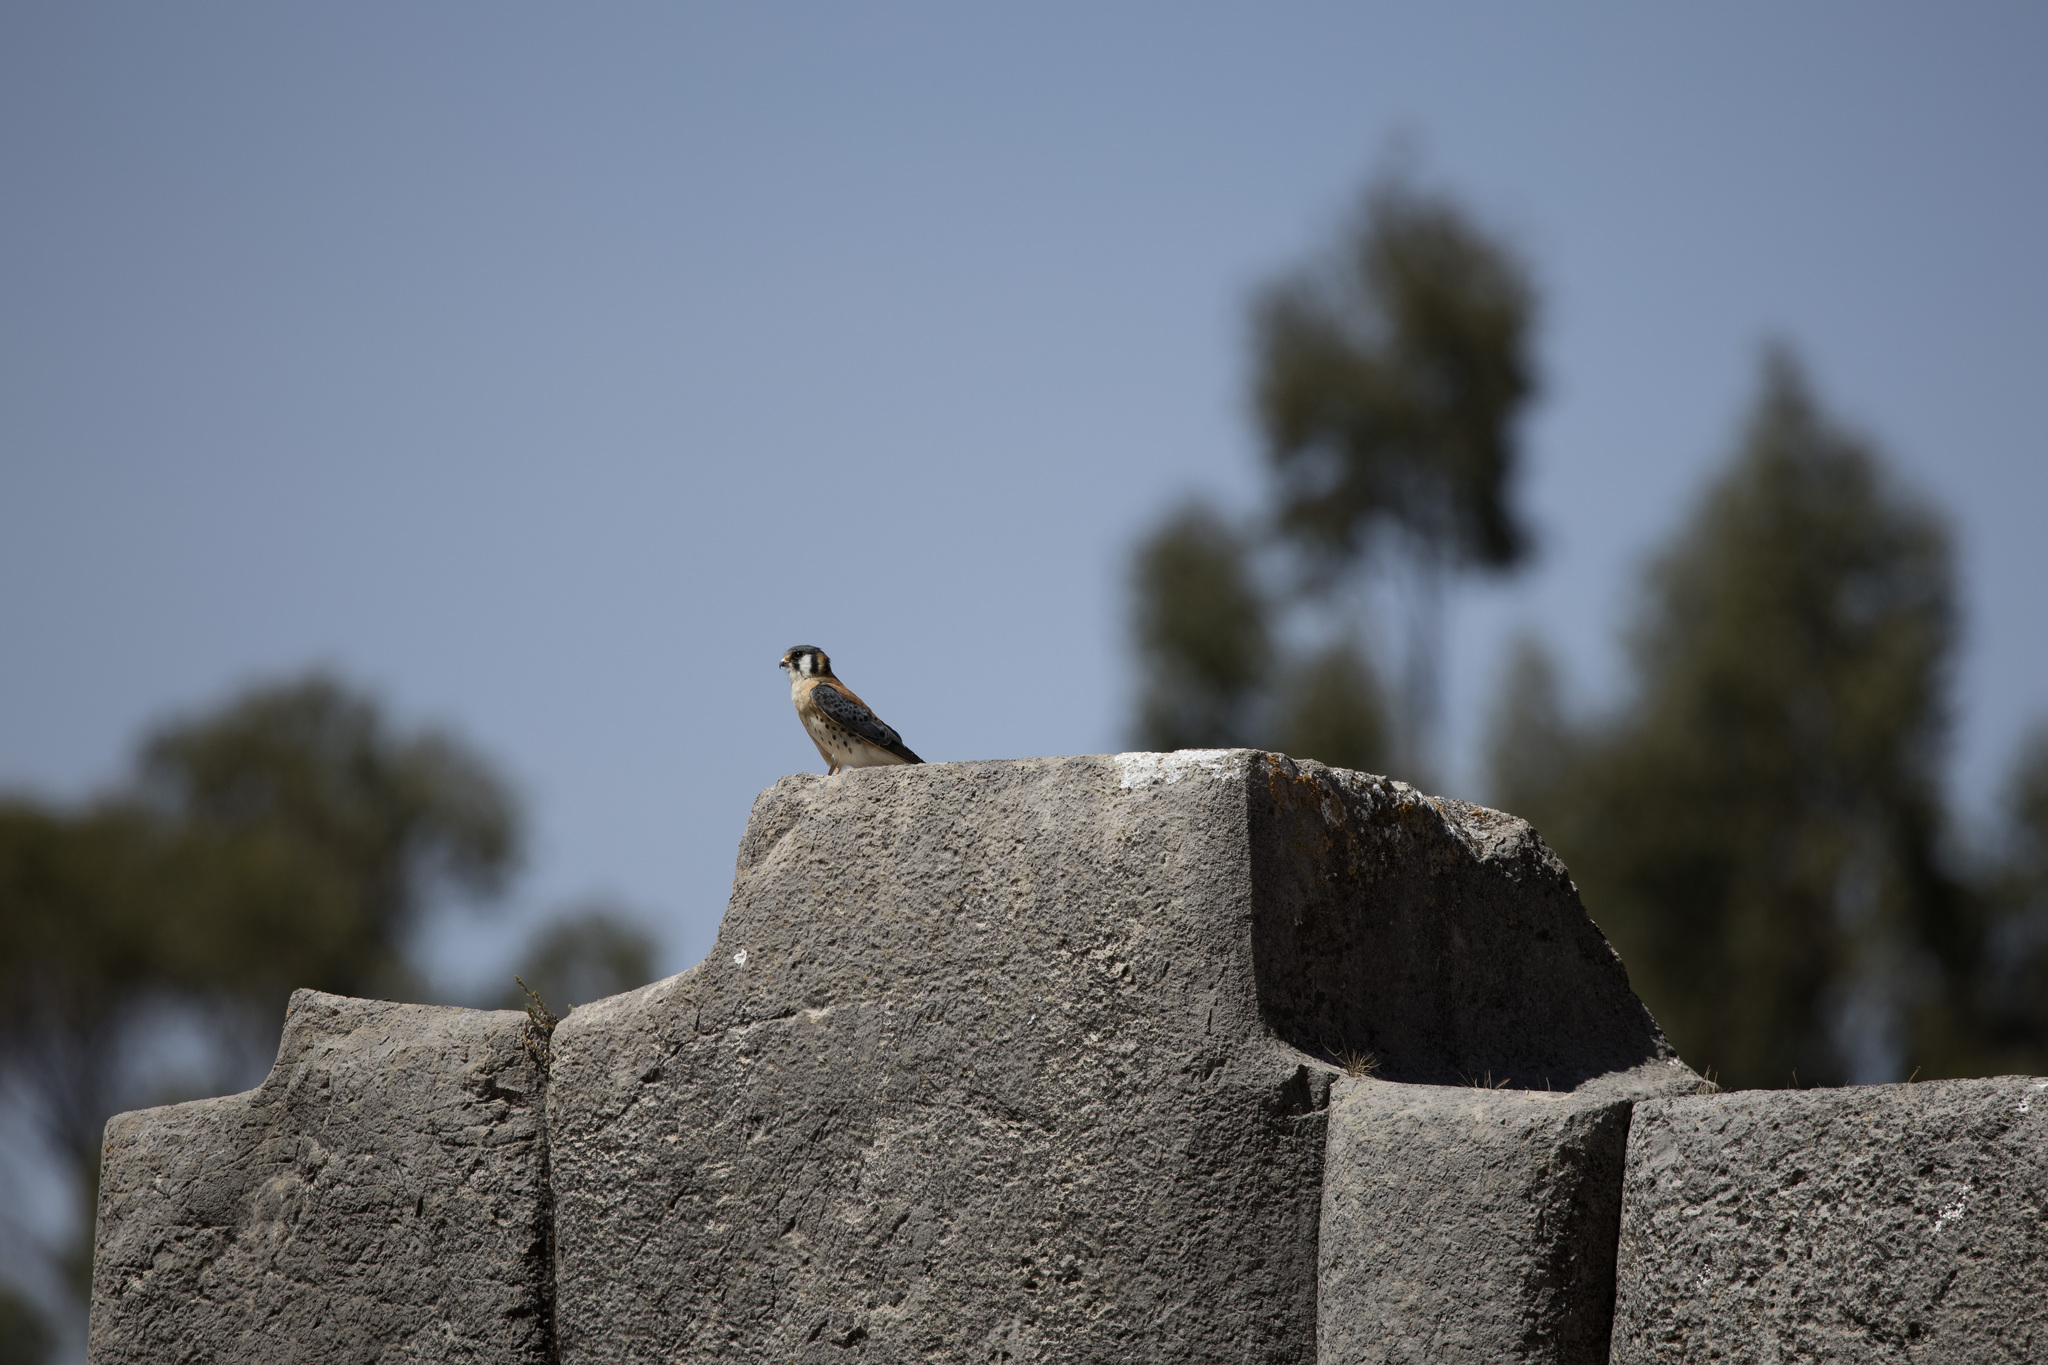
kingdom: Animalia
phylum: Chordata
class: Aves
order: Falconiformes
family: Falconidae
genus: Falco
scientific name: Falco sparverius
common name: American kestrel
